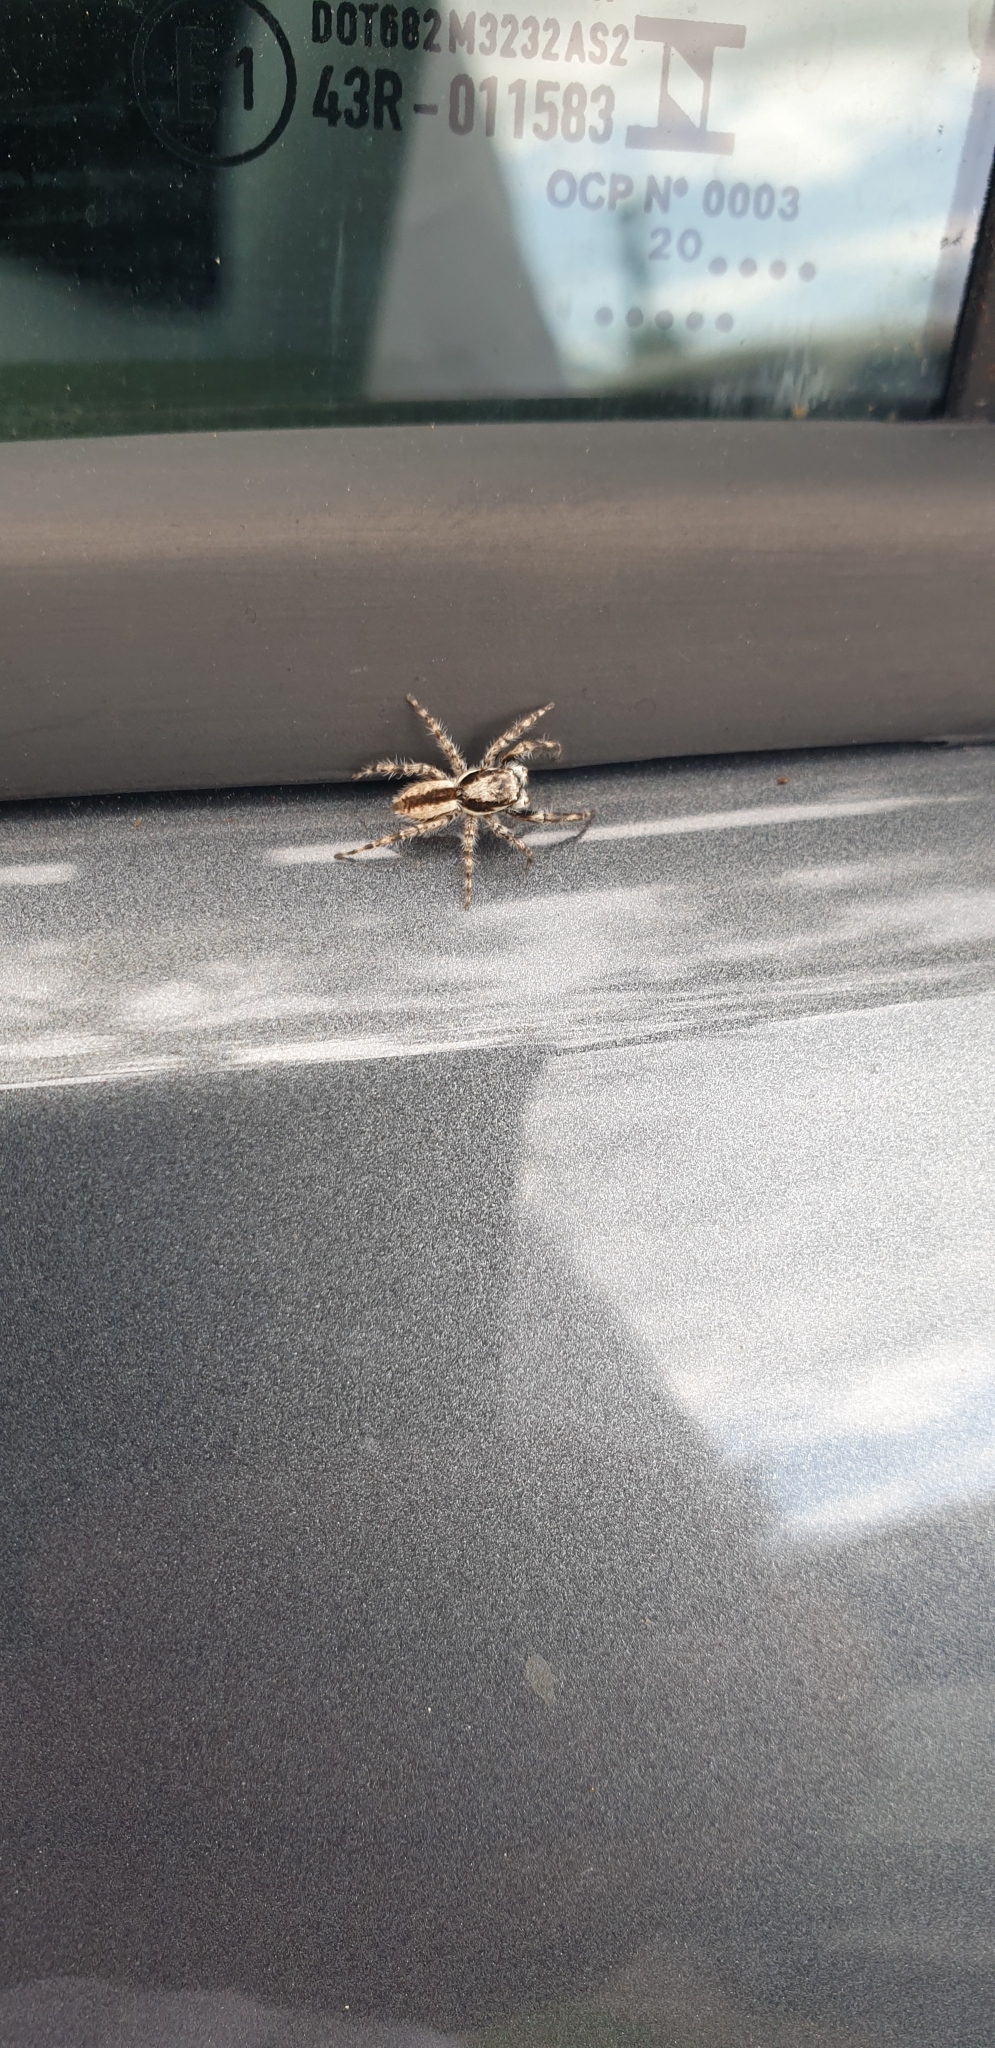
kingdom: Animalia
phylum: Arthropoda
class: Arachnida
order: Araneae
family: Salticidae
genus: Menemerus
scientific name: Menemerus bivittatus
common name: Gray wall jumper
